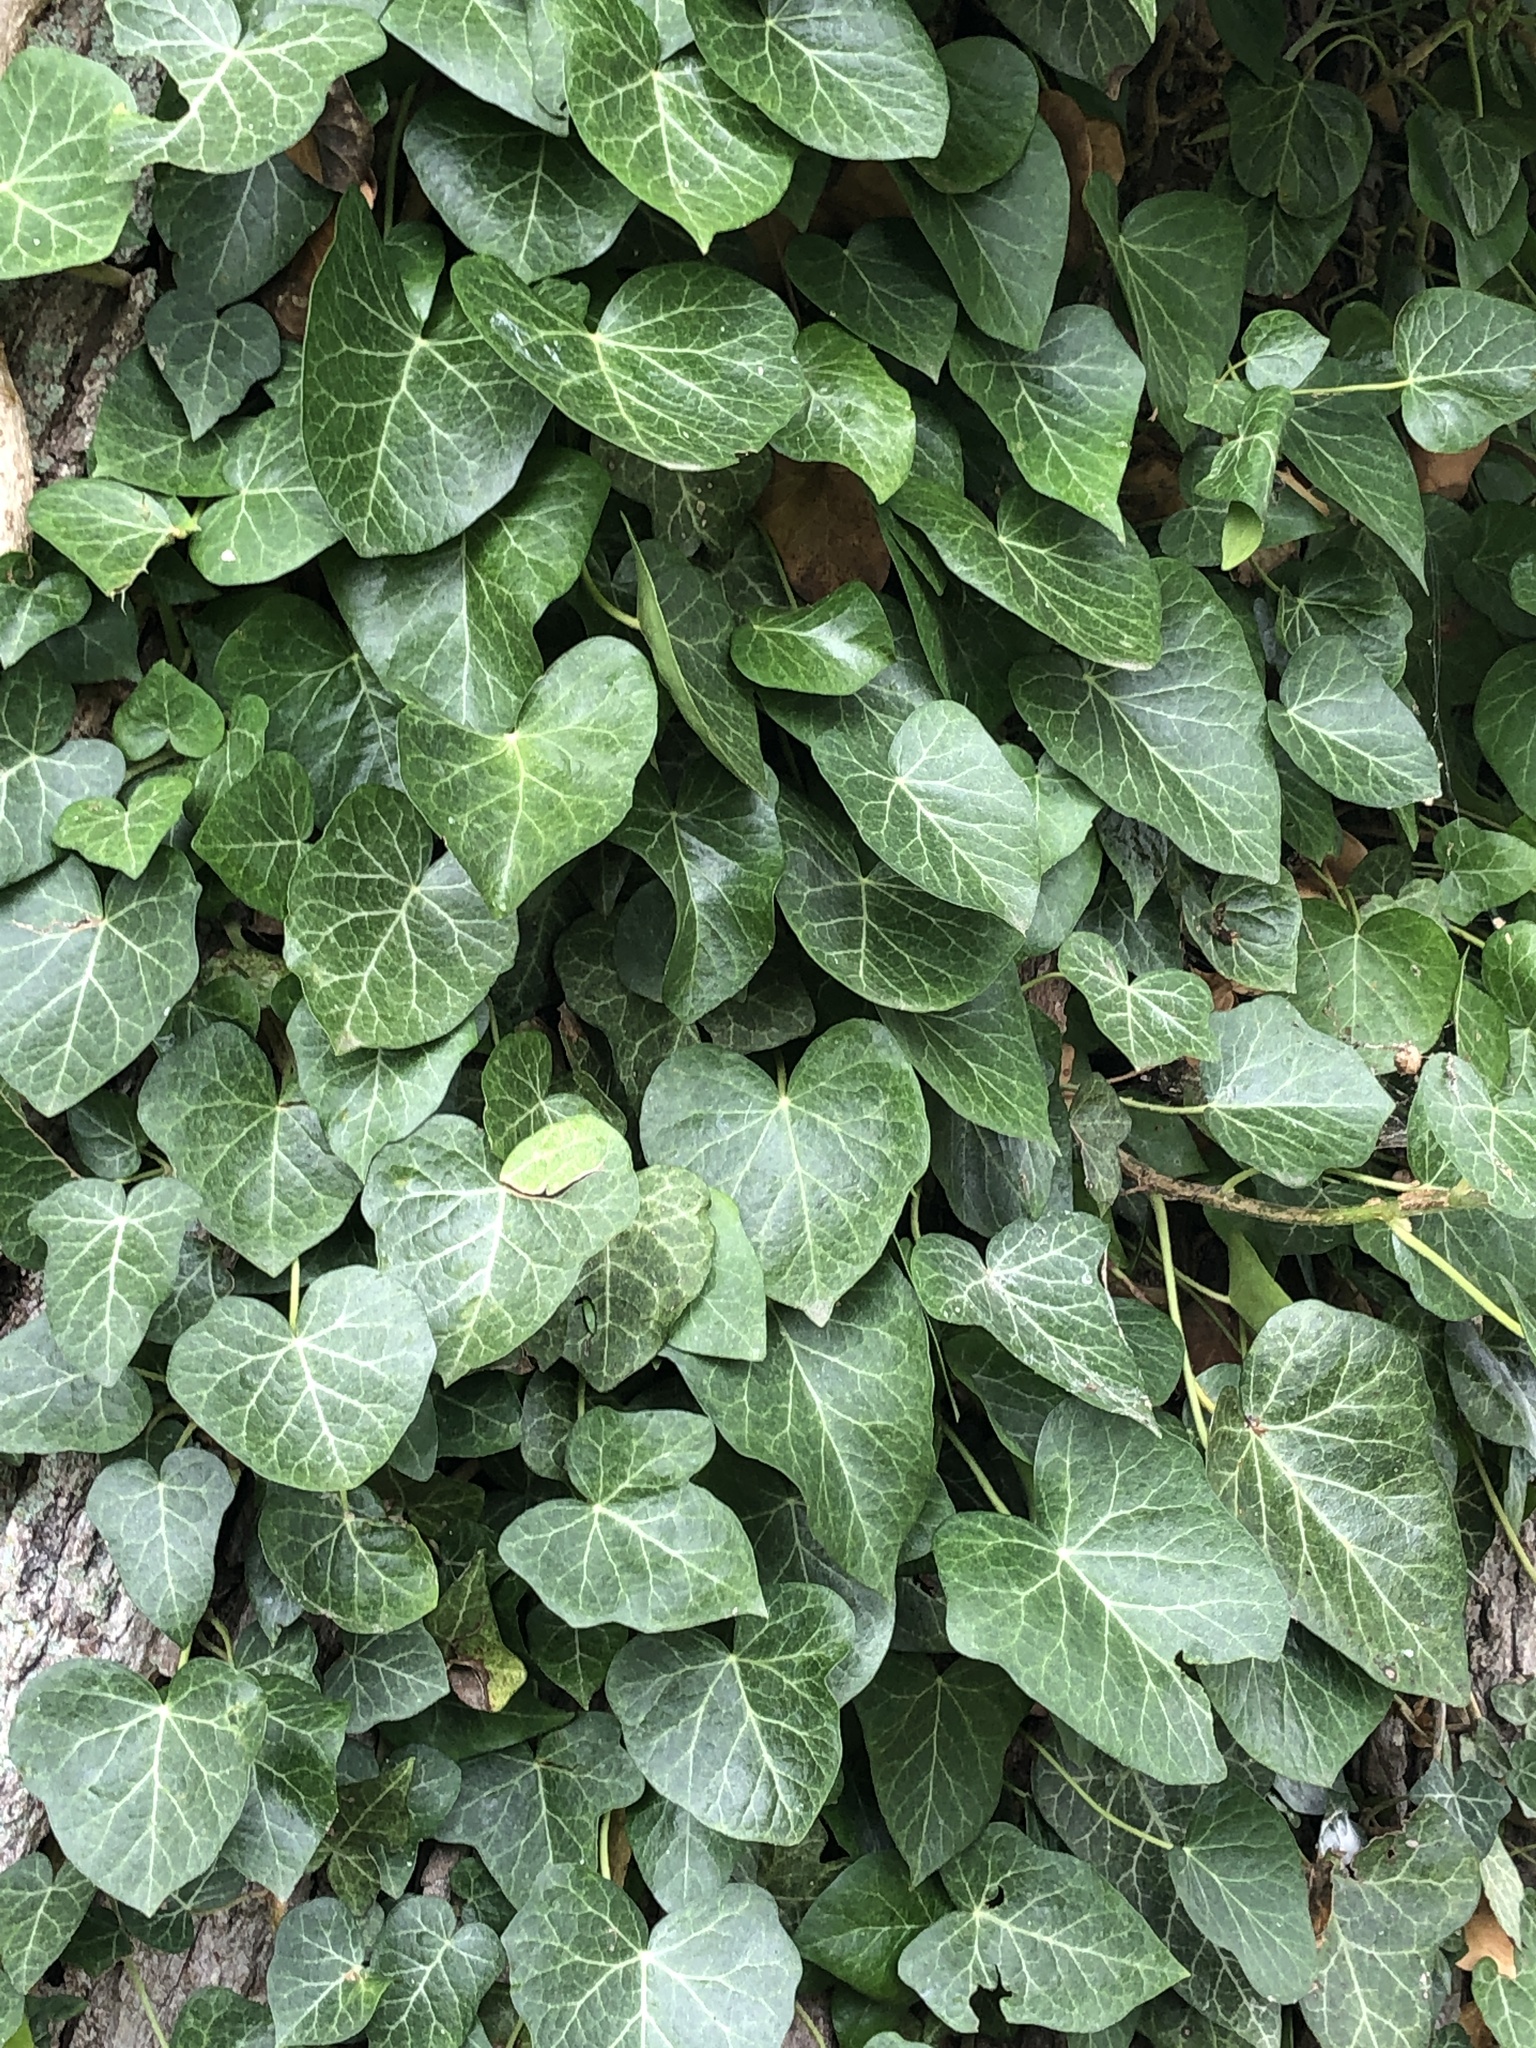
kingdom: Plantae
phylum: Tracheophyta
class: Magnoliopsida
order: Apiales
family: Araliaceae
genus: Hedera
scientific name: Hedera helix
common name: Ivy
